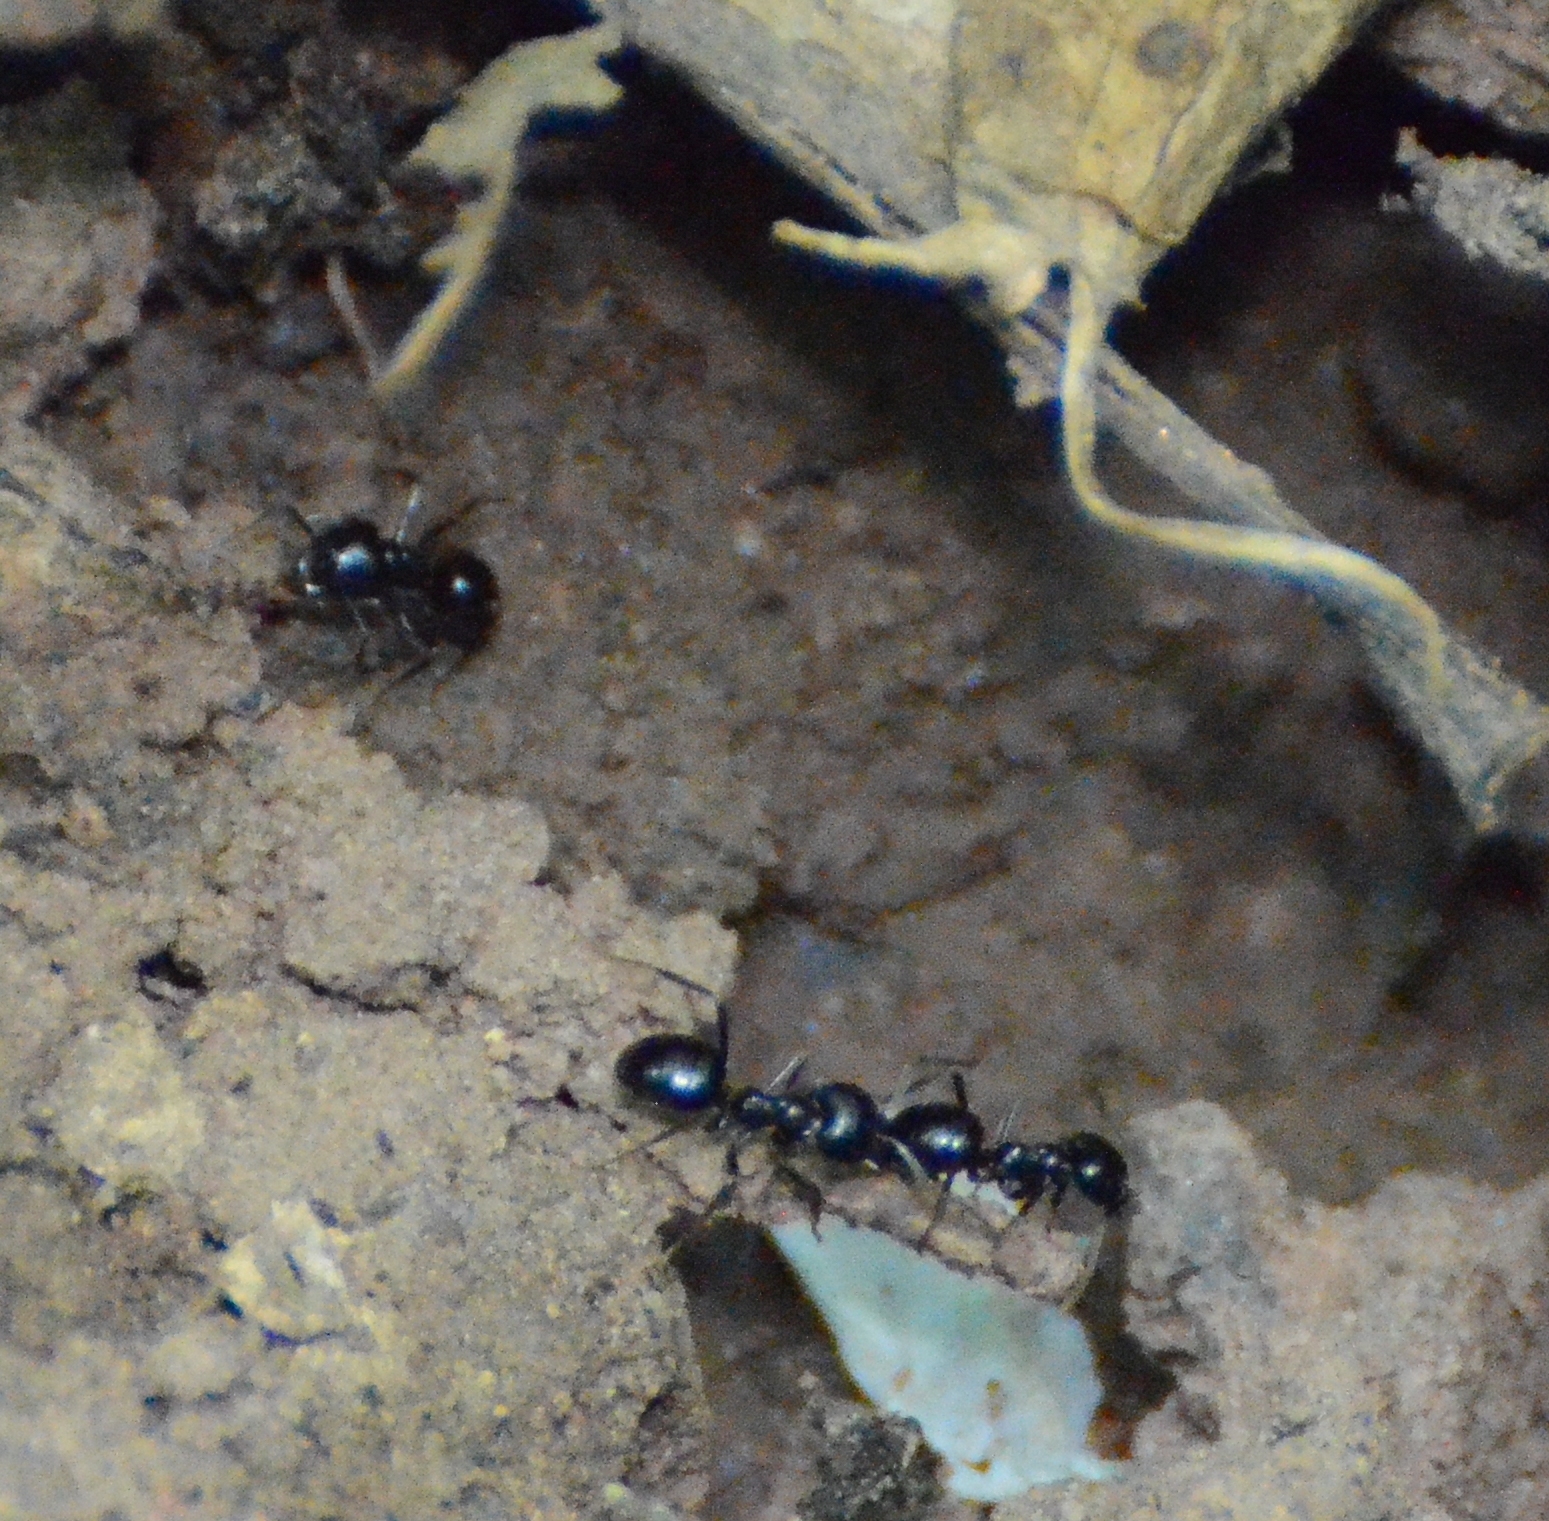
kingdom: Animalia
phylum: Arthropoda
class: Insecta
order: Hymenoptera
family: Formicidae
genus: Lasius
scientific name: Lasius fuliginosus
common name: Jet ant
